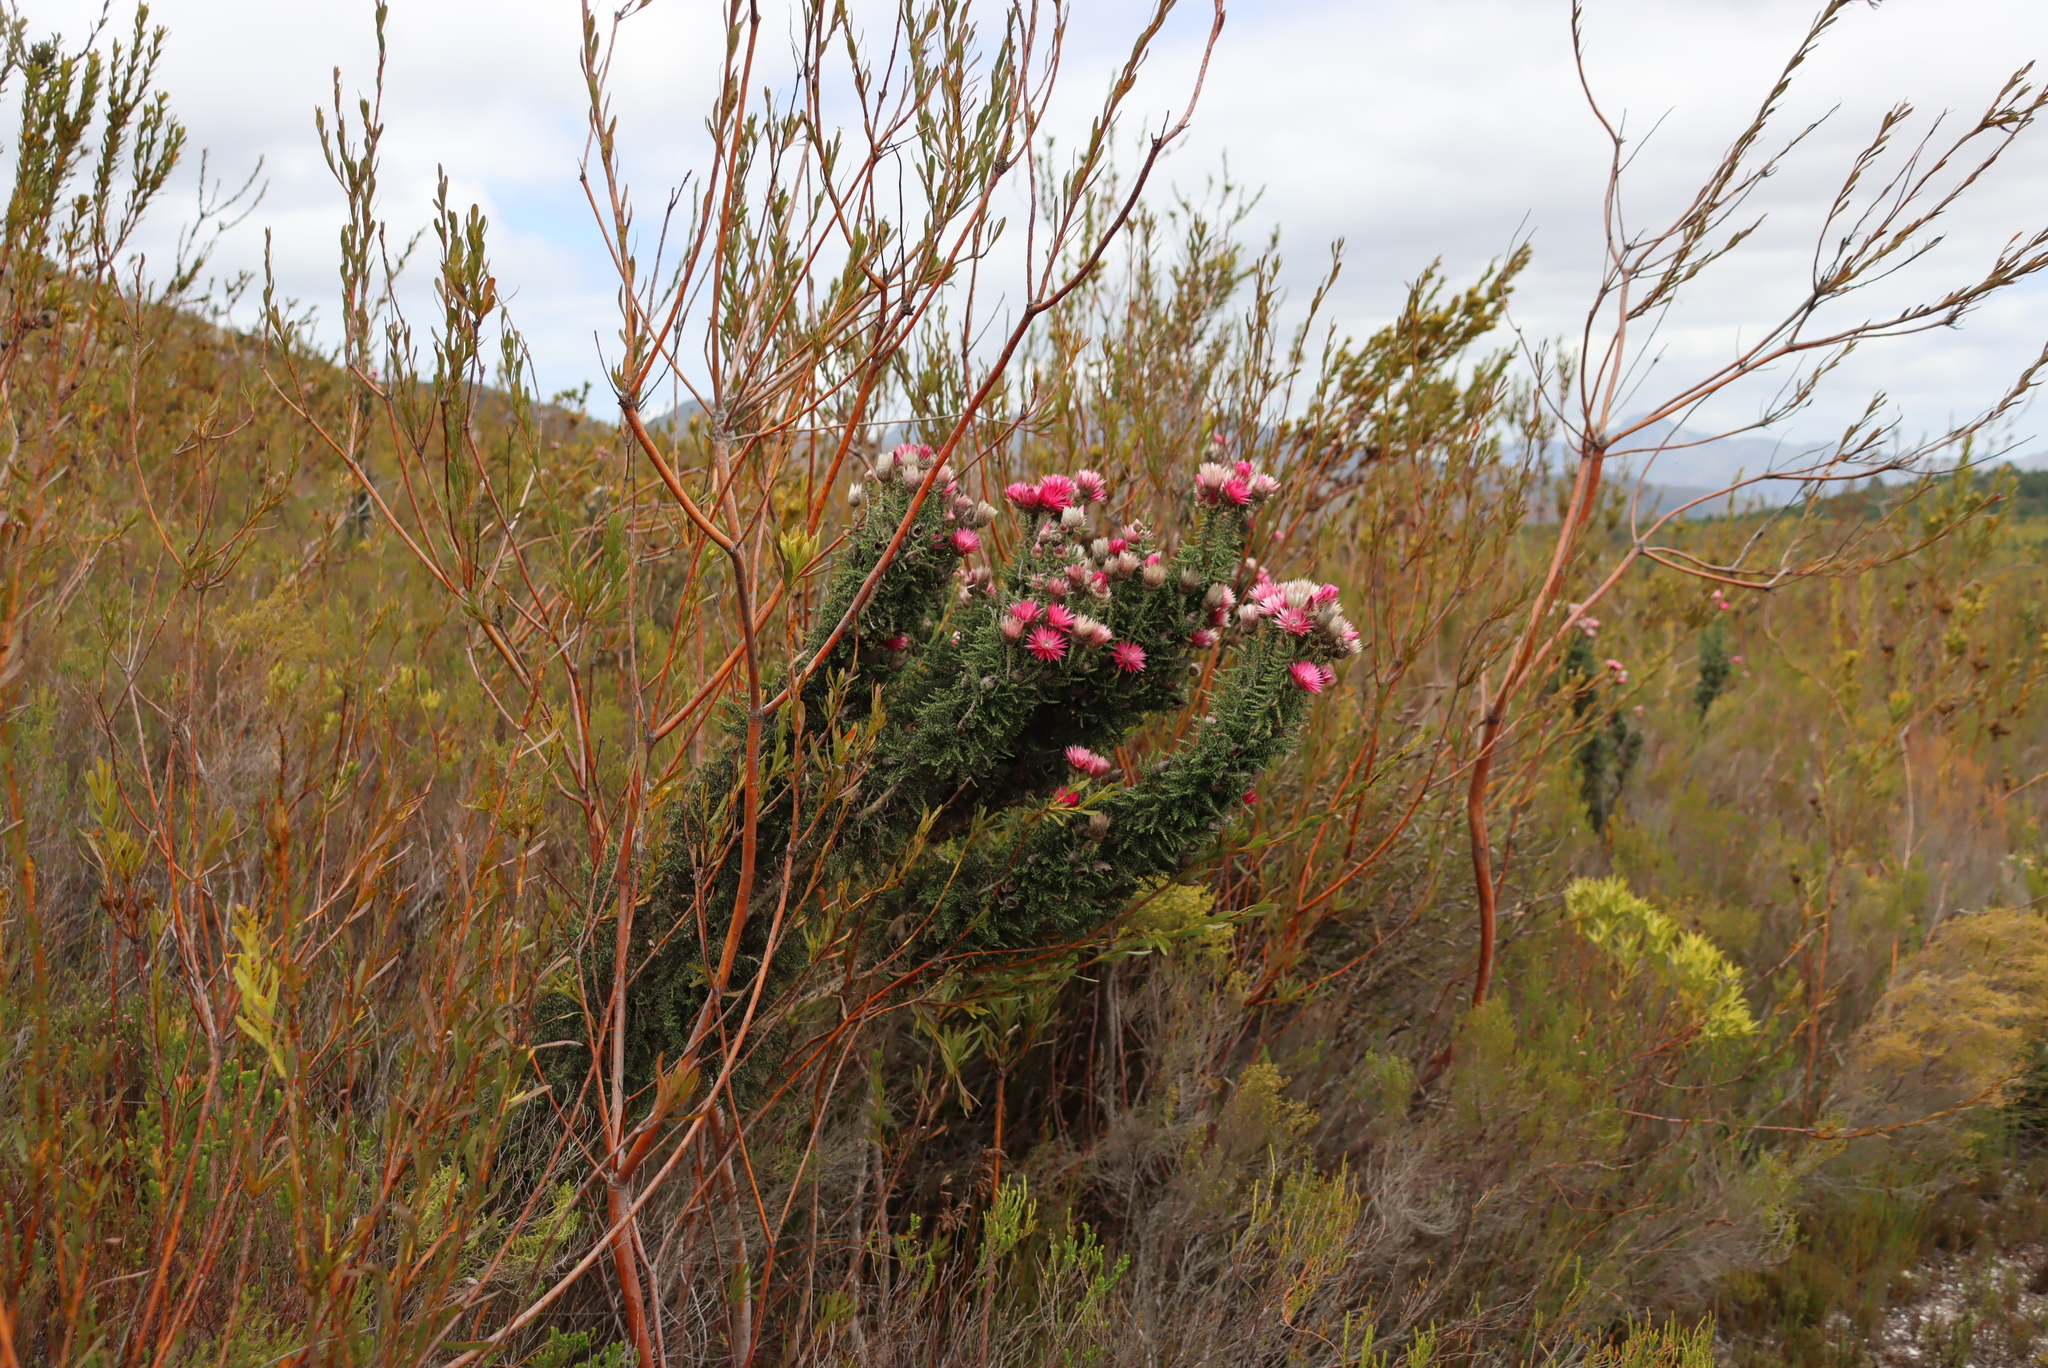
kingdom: Plantae
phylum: Tracheophyta
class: Magnoliopsida
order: Asterales
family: Asteraceae
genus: Phaenocoma
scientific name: Phaenocoma prolifera
